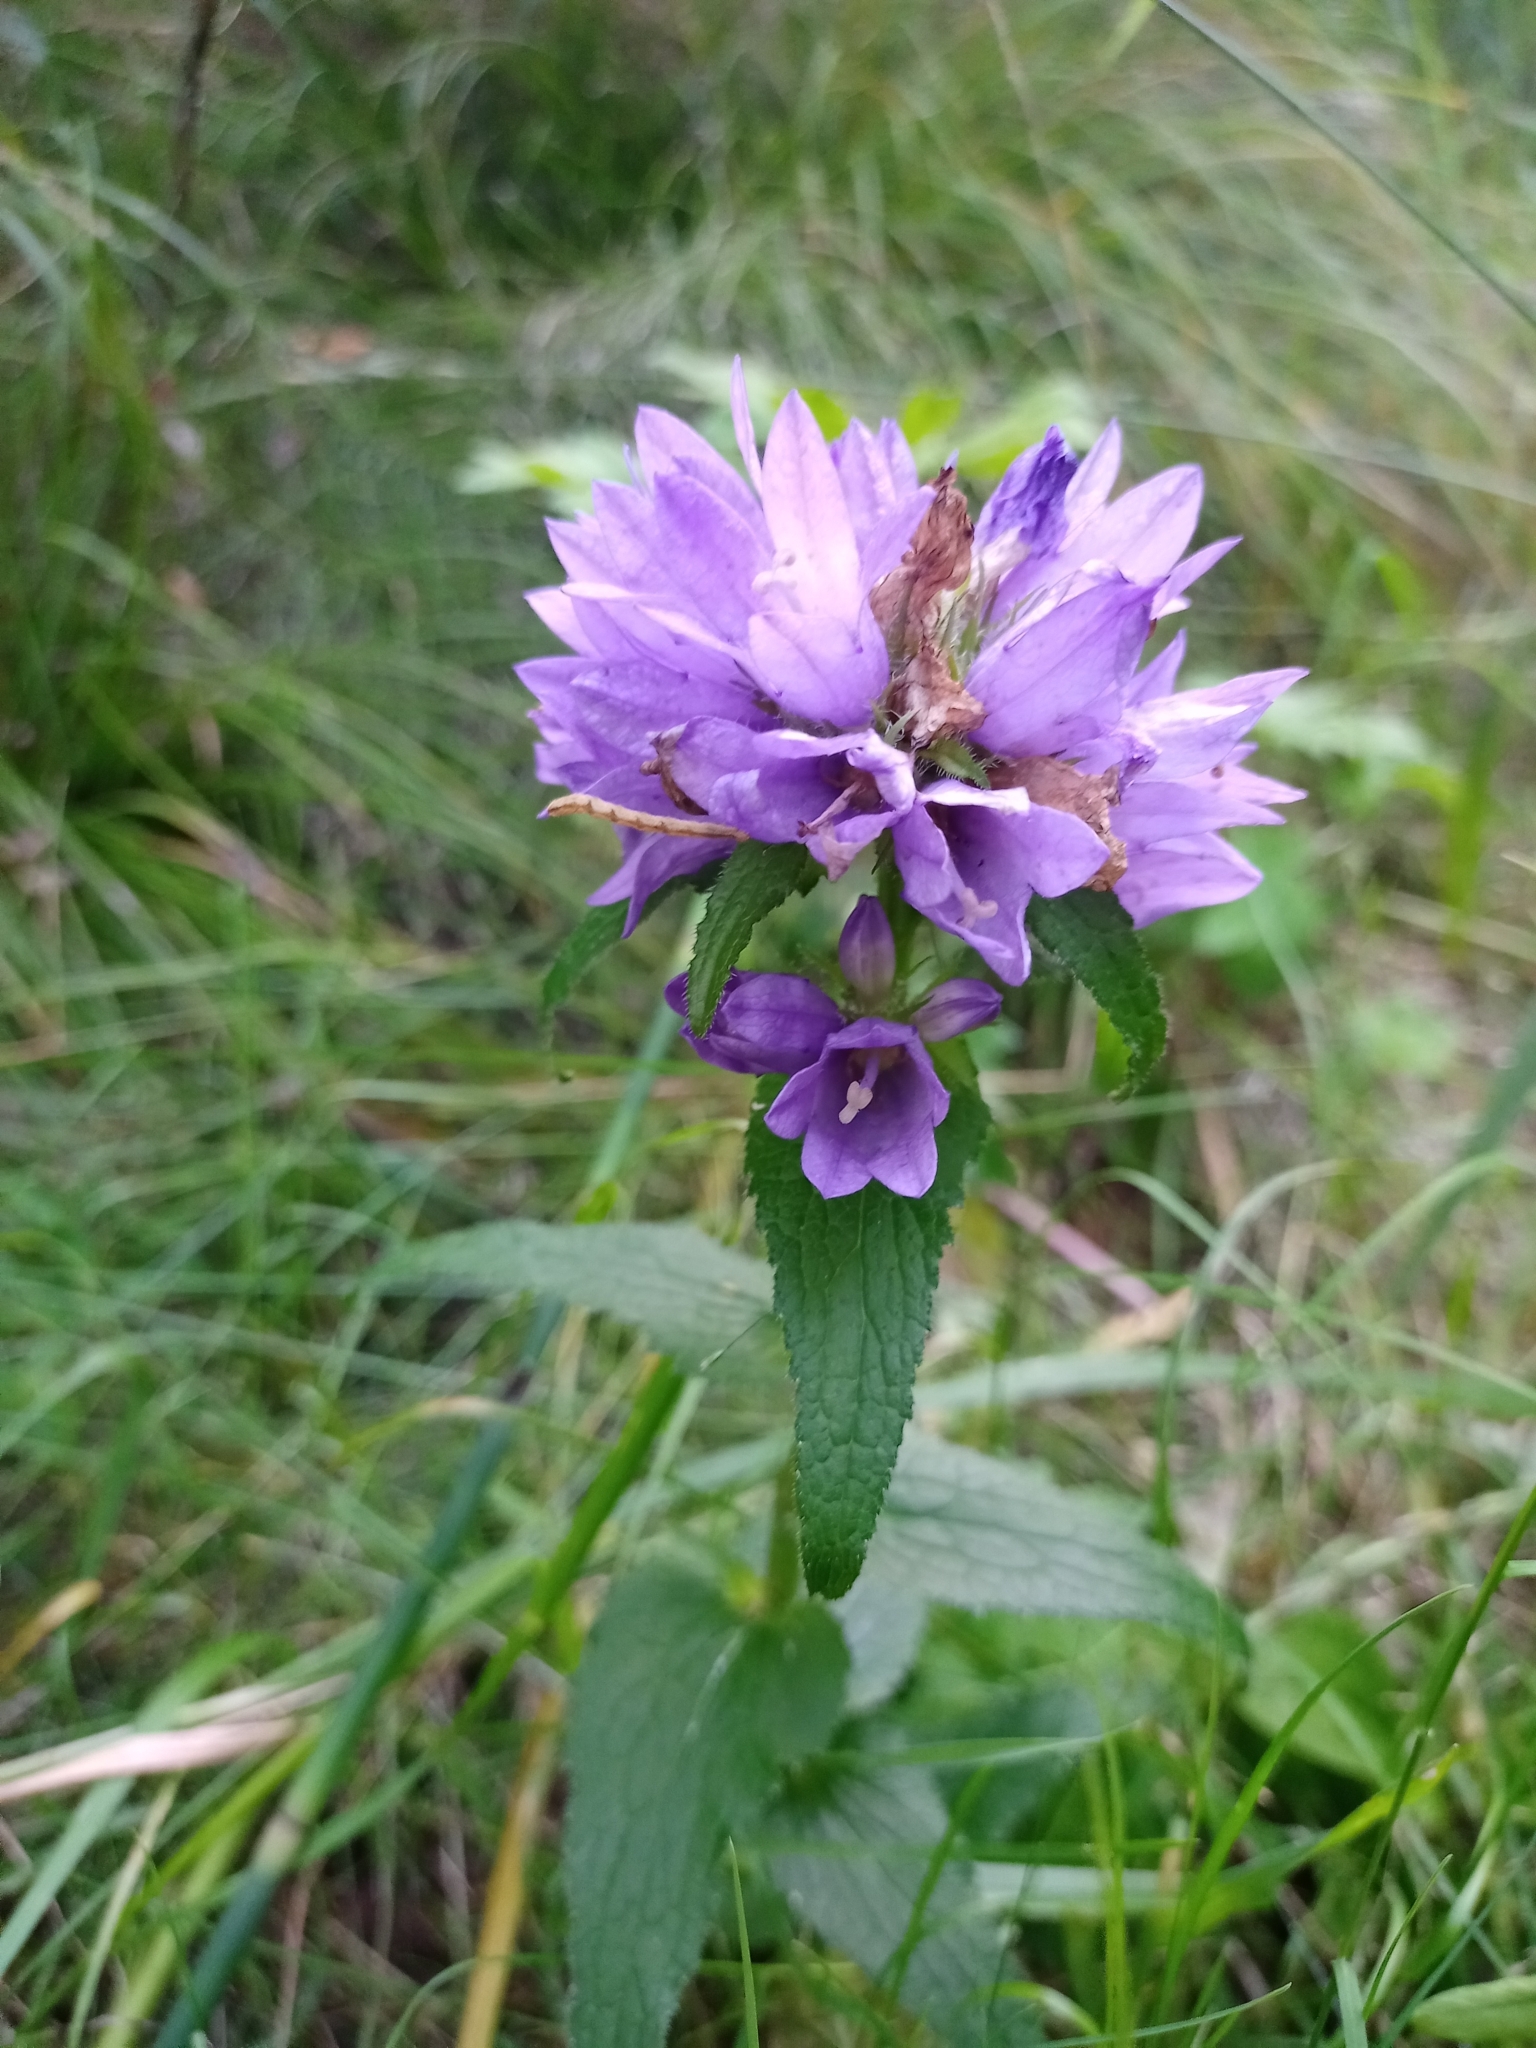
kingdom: Plantae
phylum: Tracheophyta
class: Magnoliopsida
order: Asterales
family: Campanulaceae
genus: Campanula
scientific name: Campanula glomerata
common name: Clustered bellflower
